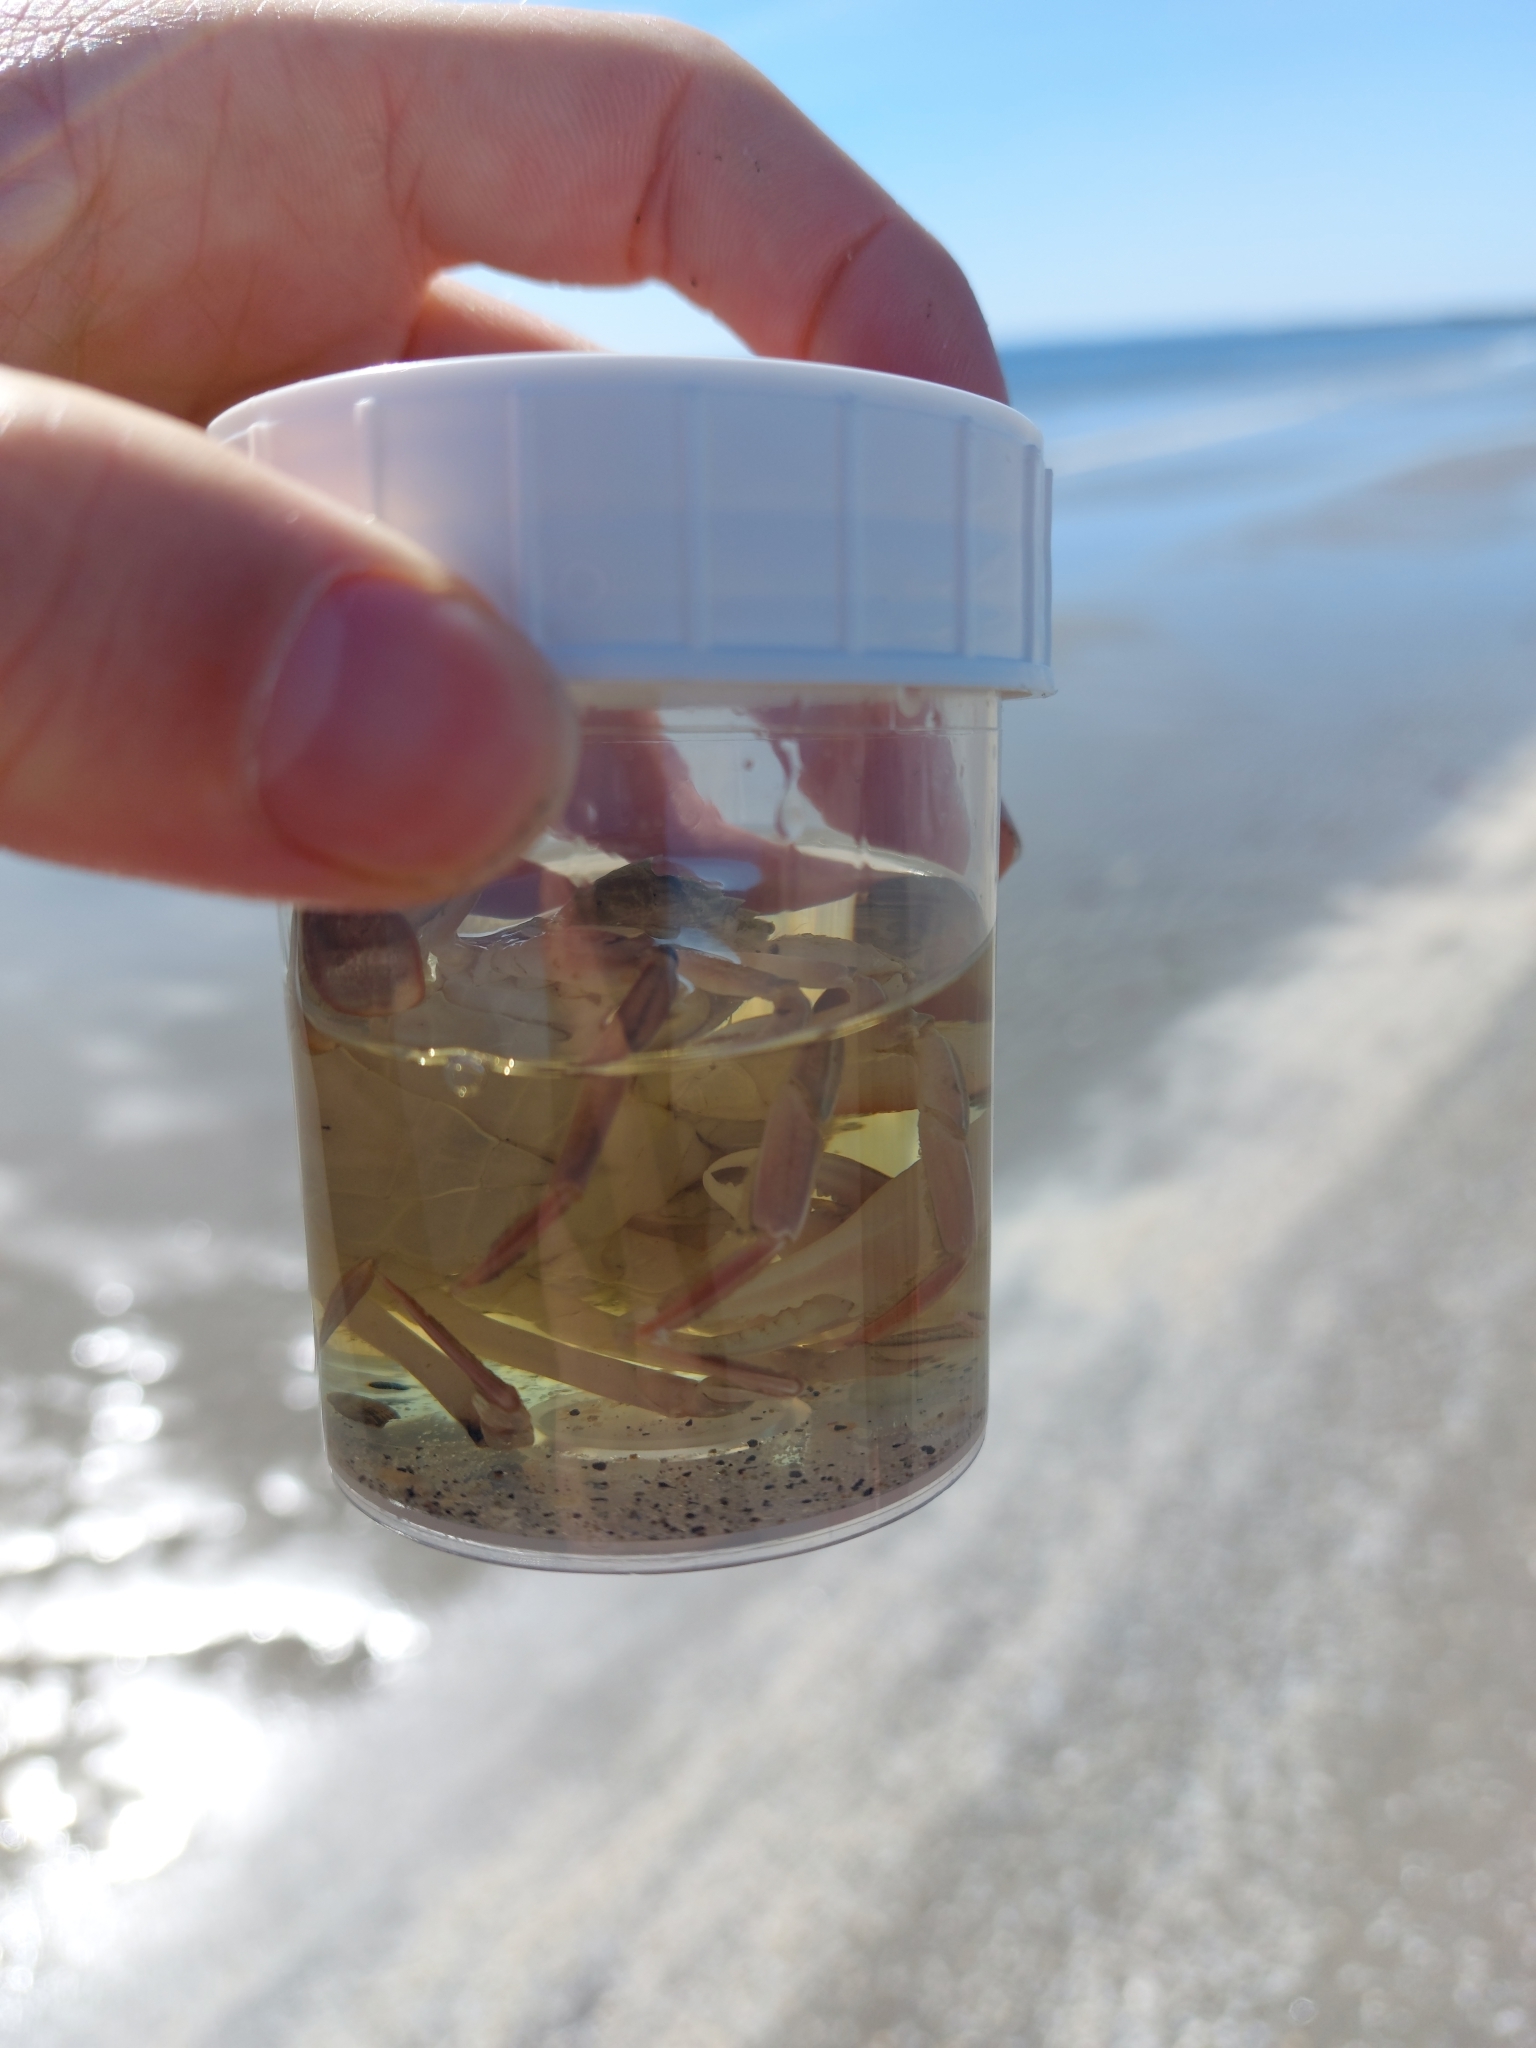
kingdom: Animalia
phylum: Arthropoda
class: Malacostraca
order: Decapoda
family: Polybiidae
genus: Liocarcinus
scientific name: Liocarcinus depurator
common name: Cleanser crab
